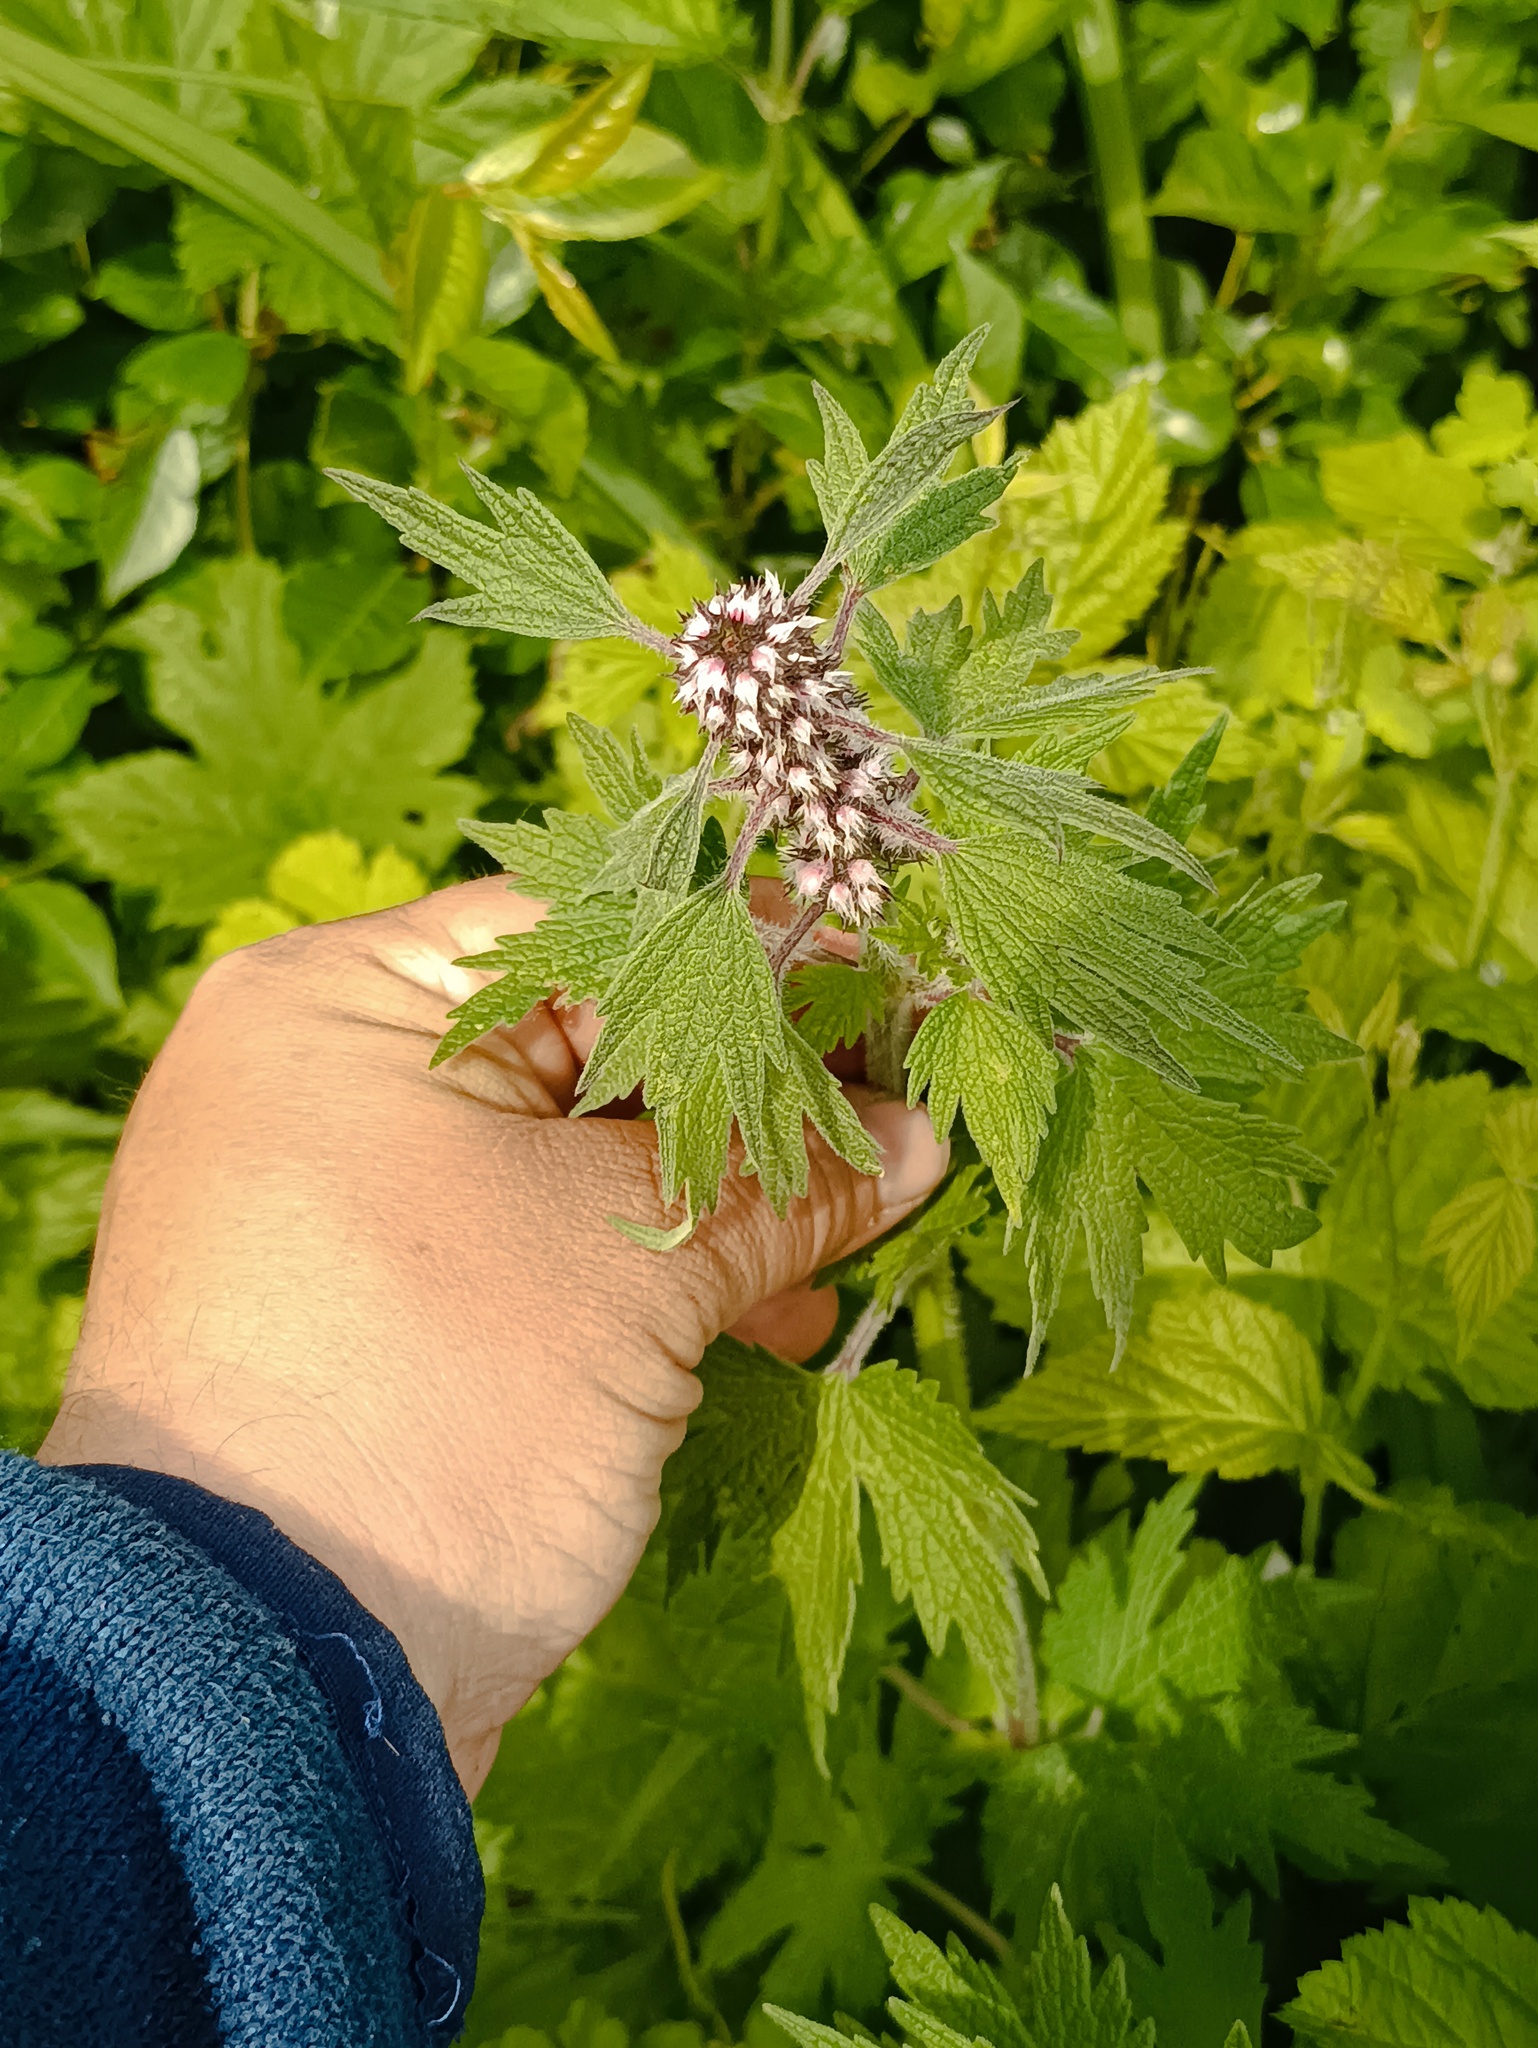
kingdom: Plantae
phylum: Tracheophyta
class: Magnoliopsida
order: Lamiales
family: Lamiaceae
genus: Leonurus
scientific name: Leonurus quinquelobatus
